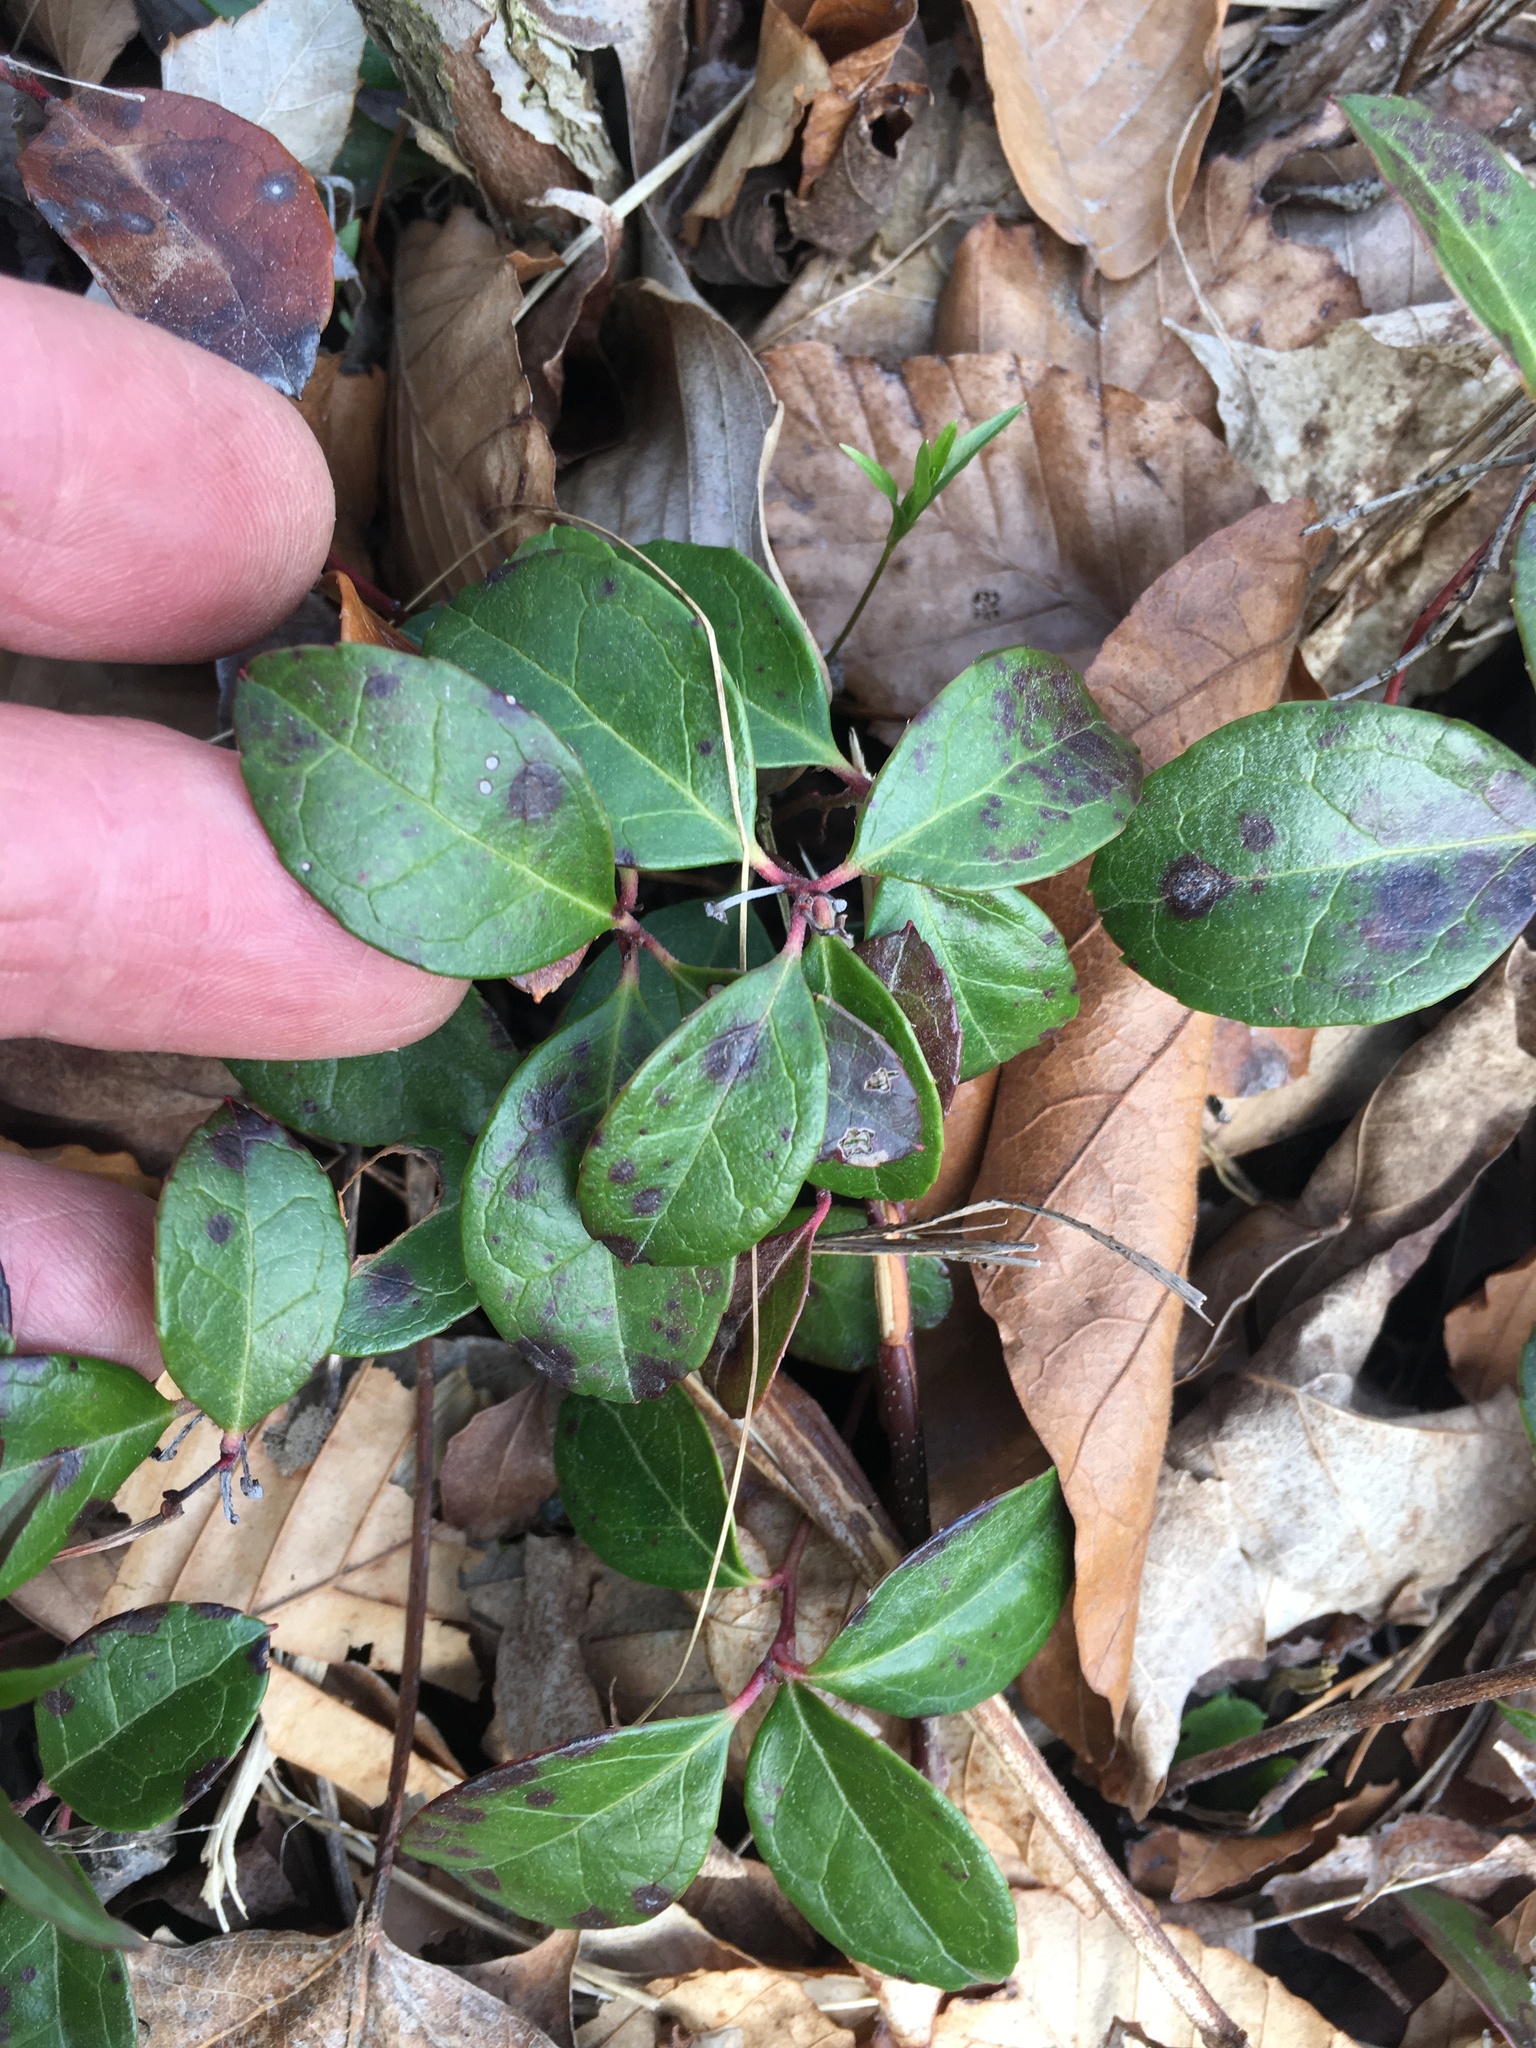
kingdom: Plantae
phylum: Tracheophyta
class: Magnoliopsida
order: Ericales
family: Ericaceae
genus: Gaultheria
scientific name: Gaultheria procumbens
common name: Checkerberry
